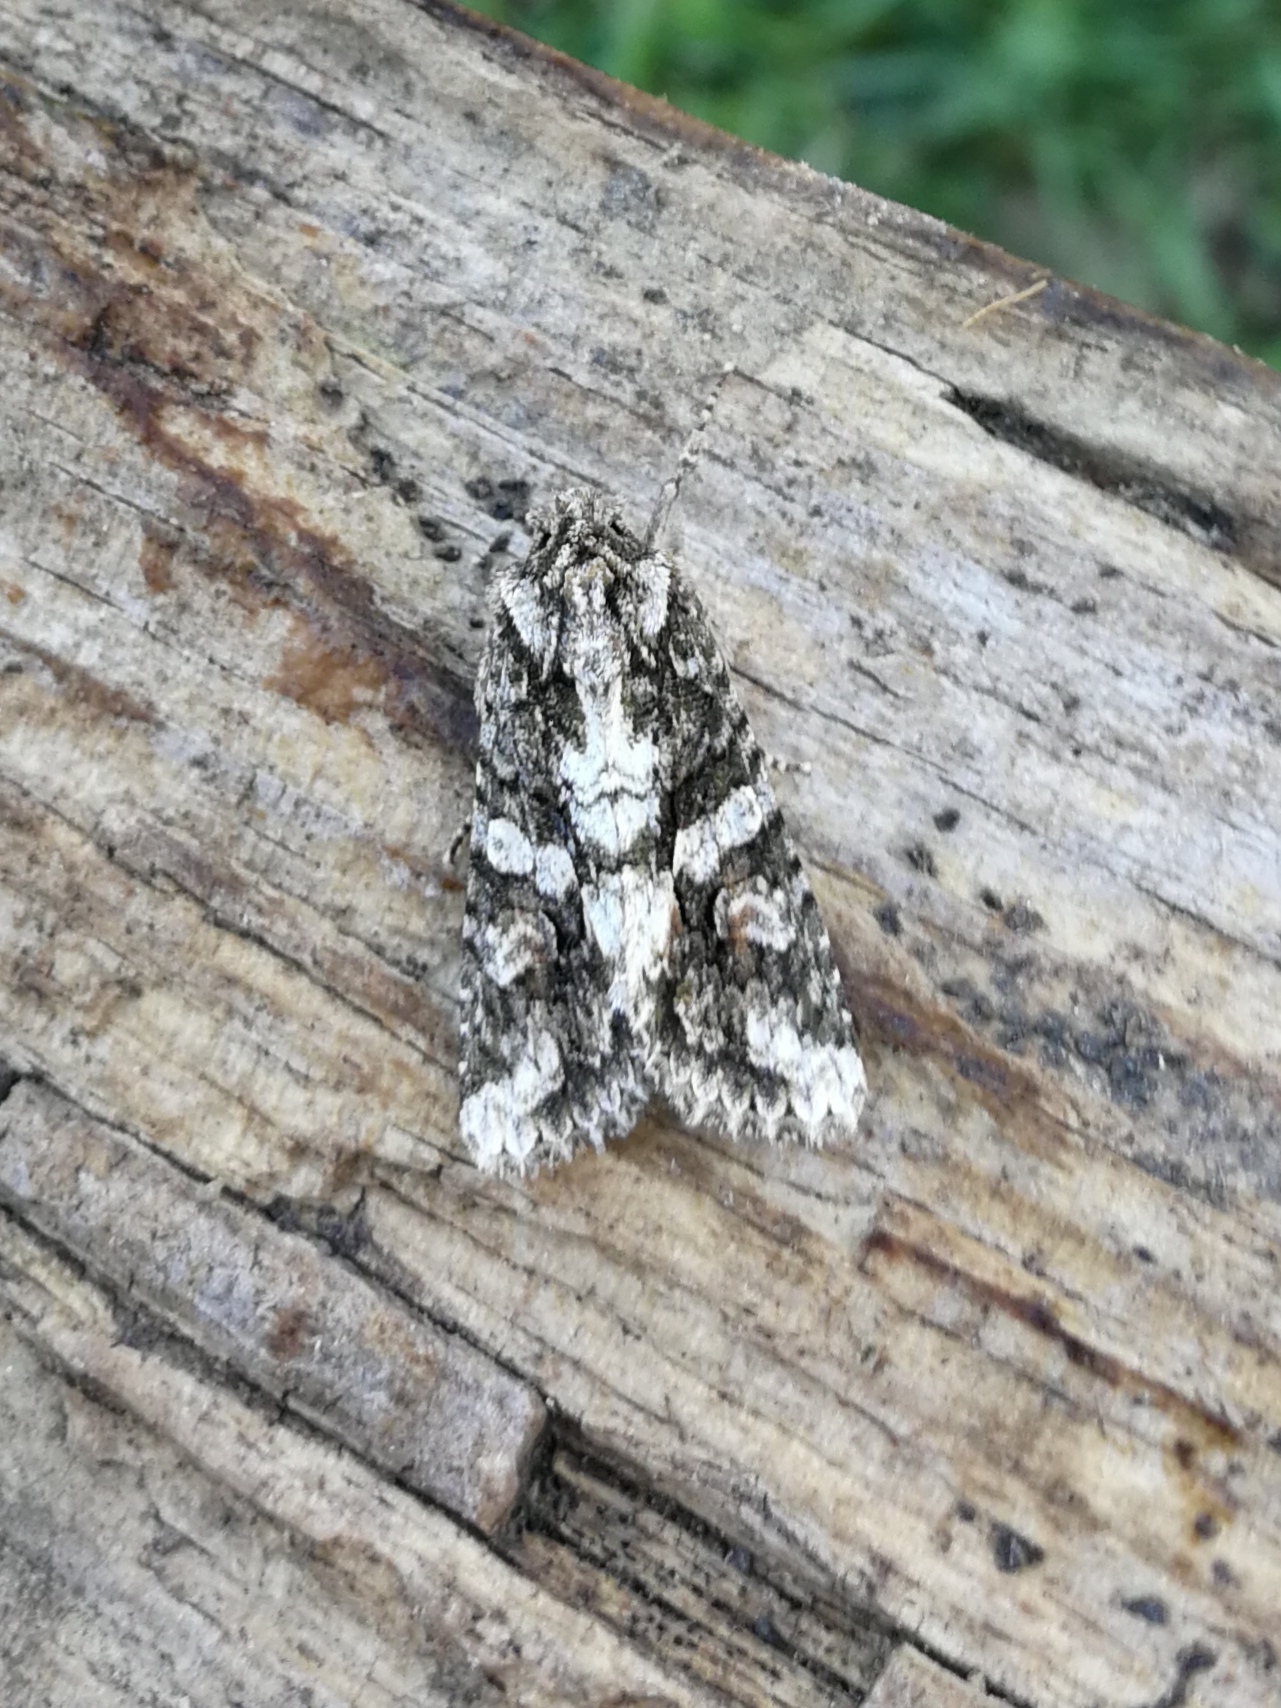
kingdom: Animalia
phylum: Arthropoda
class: Insecta
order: Lepidoptera
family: Noctuidae
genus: Dryobotodes
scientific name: Dryobotodes eremita
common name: Brindled green
